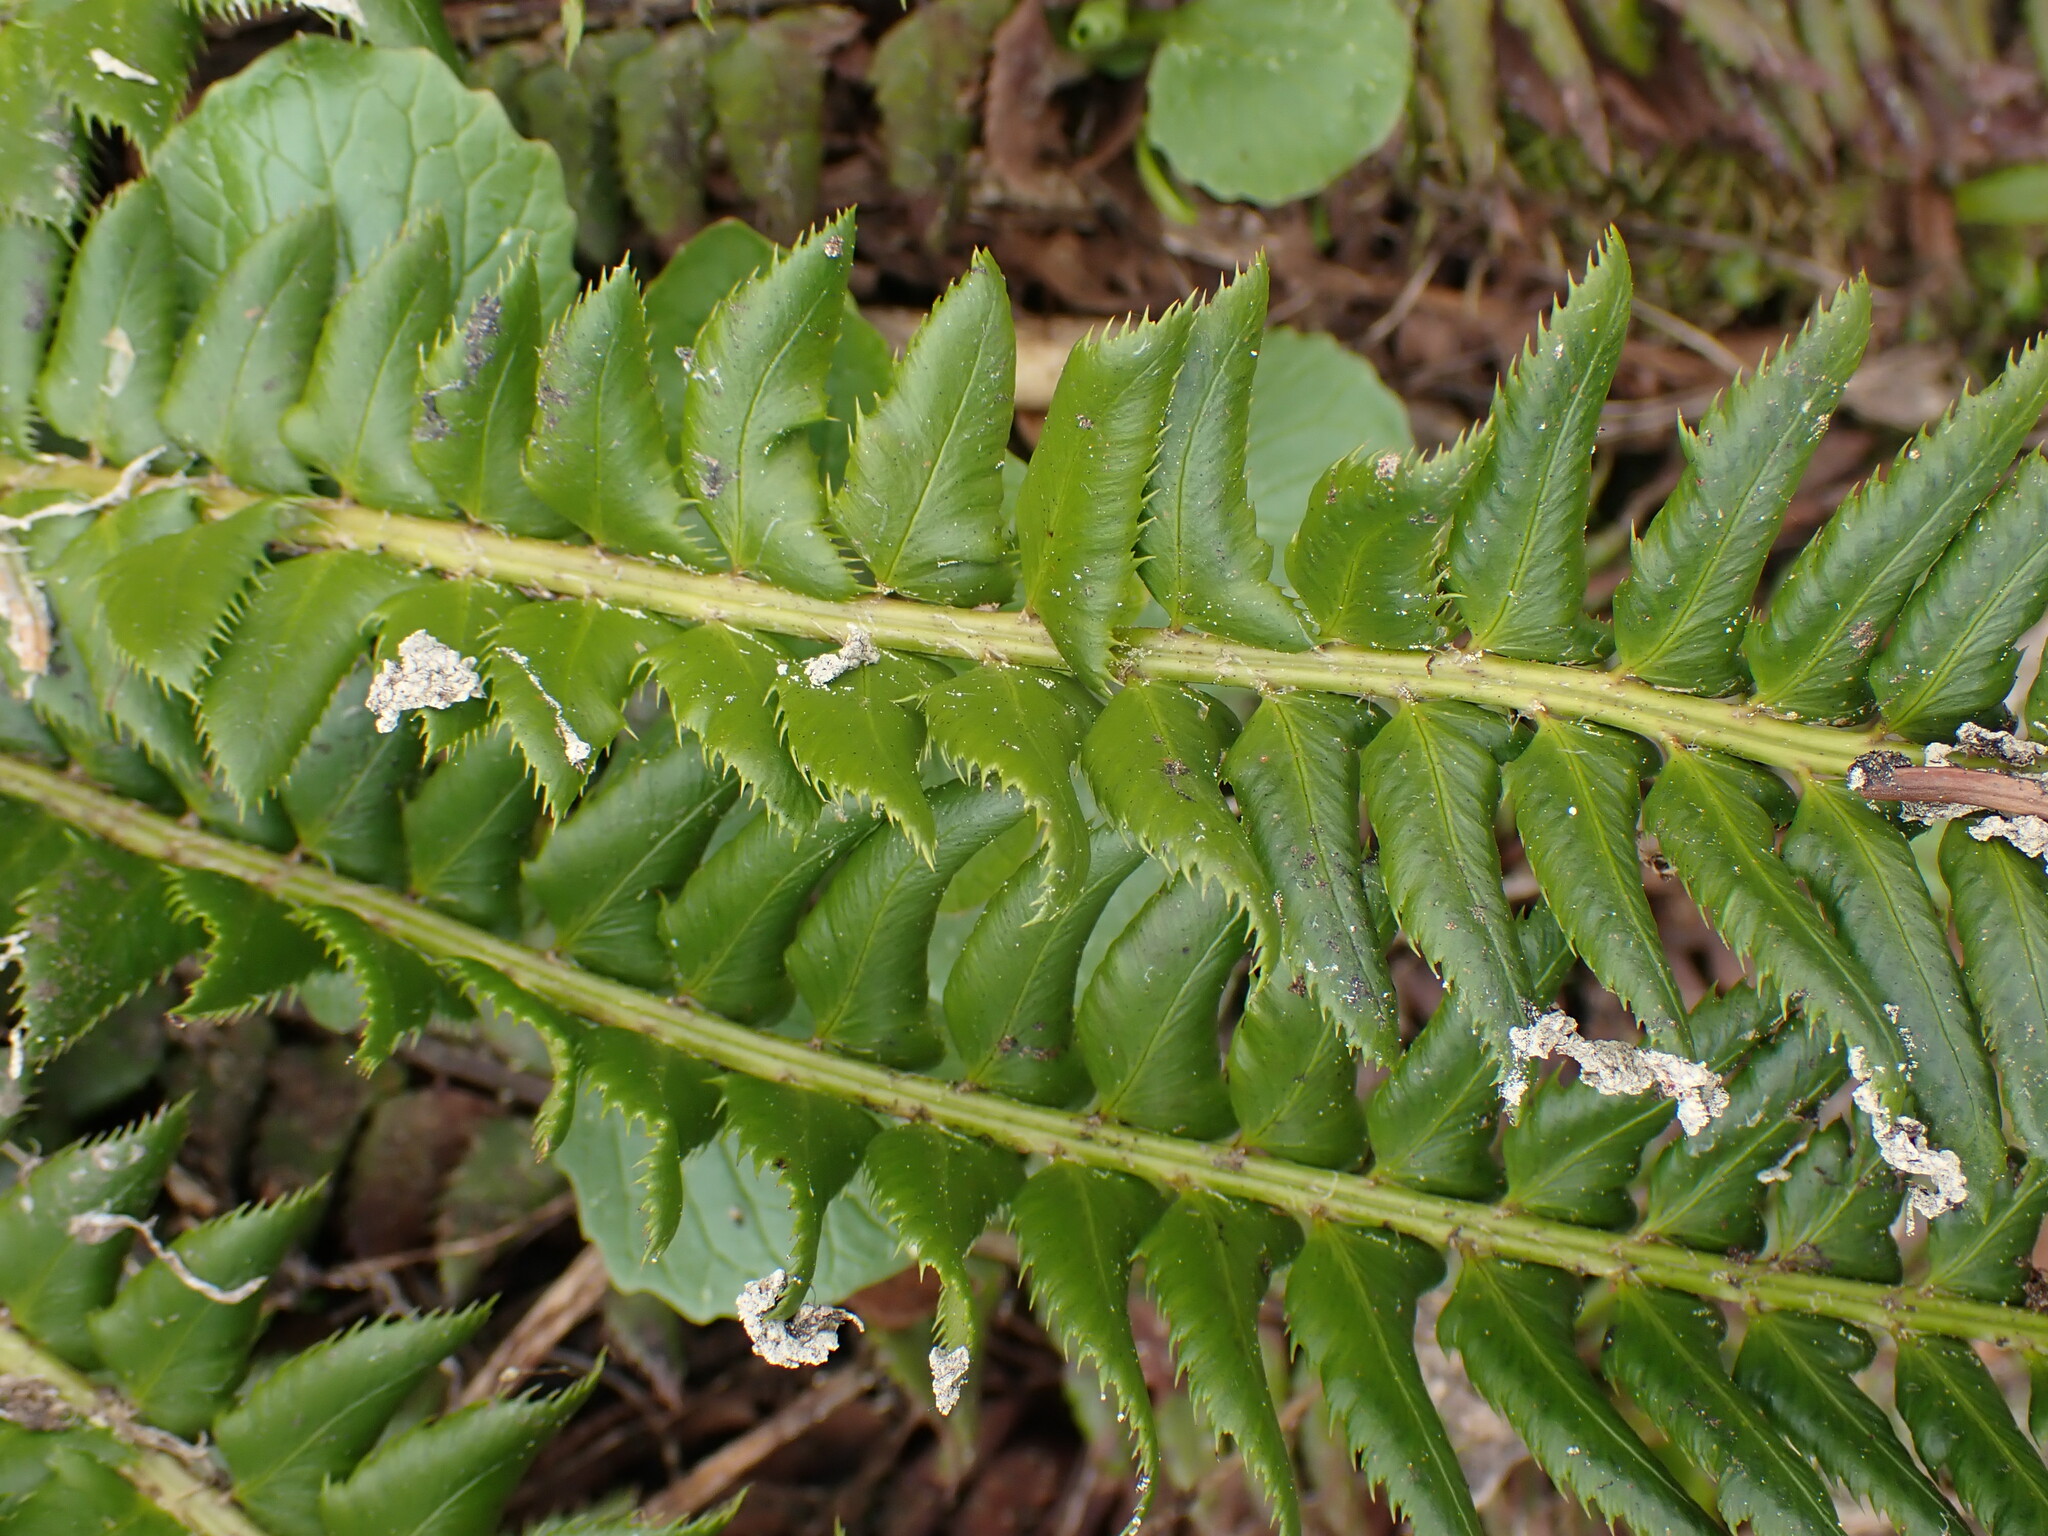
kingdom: Plantae
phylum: Tracheophyta
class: Polypodiopsida
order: Polypodiales
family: Dryopteridaceae
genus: Polystichum
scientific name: Polystichum lonchitis
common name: Holly fern
